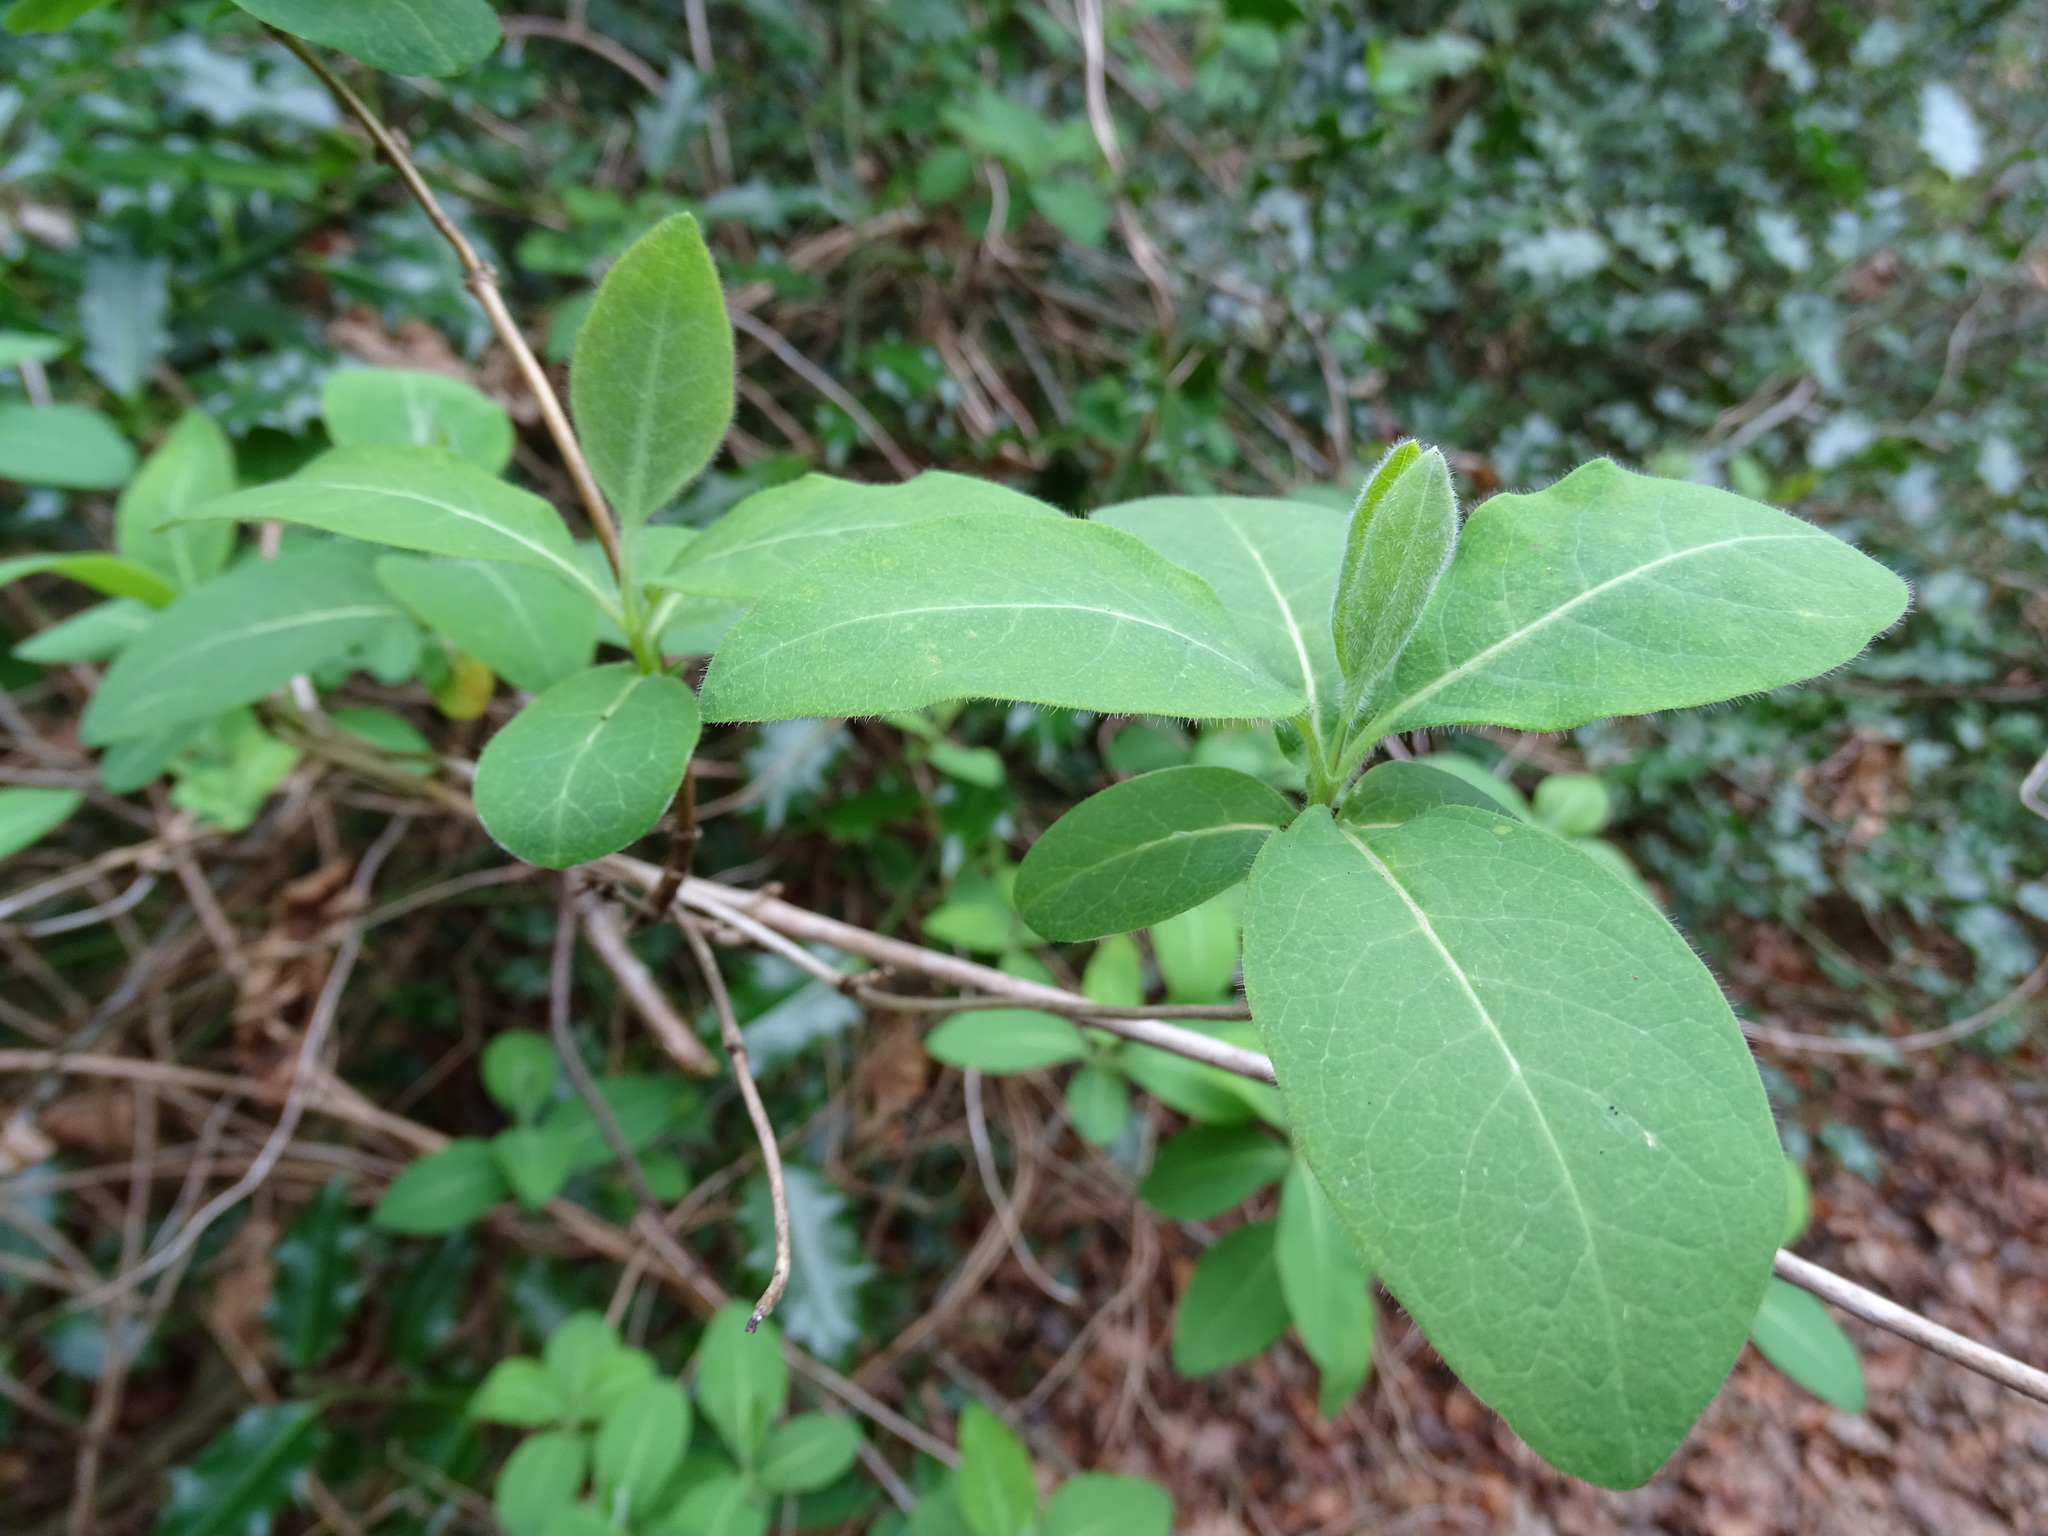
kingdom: Plantae
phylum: Tracheophyta
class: Magnoliopsida
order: Dipsacales
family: Caprifoliaceae
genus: Lonicera
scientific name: Lonicera periclymenum
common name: European honeysuckle
